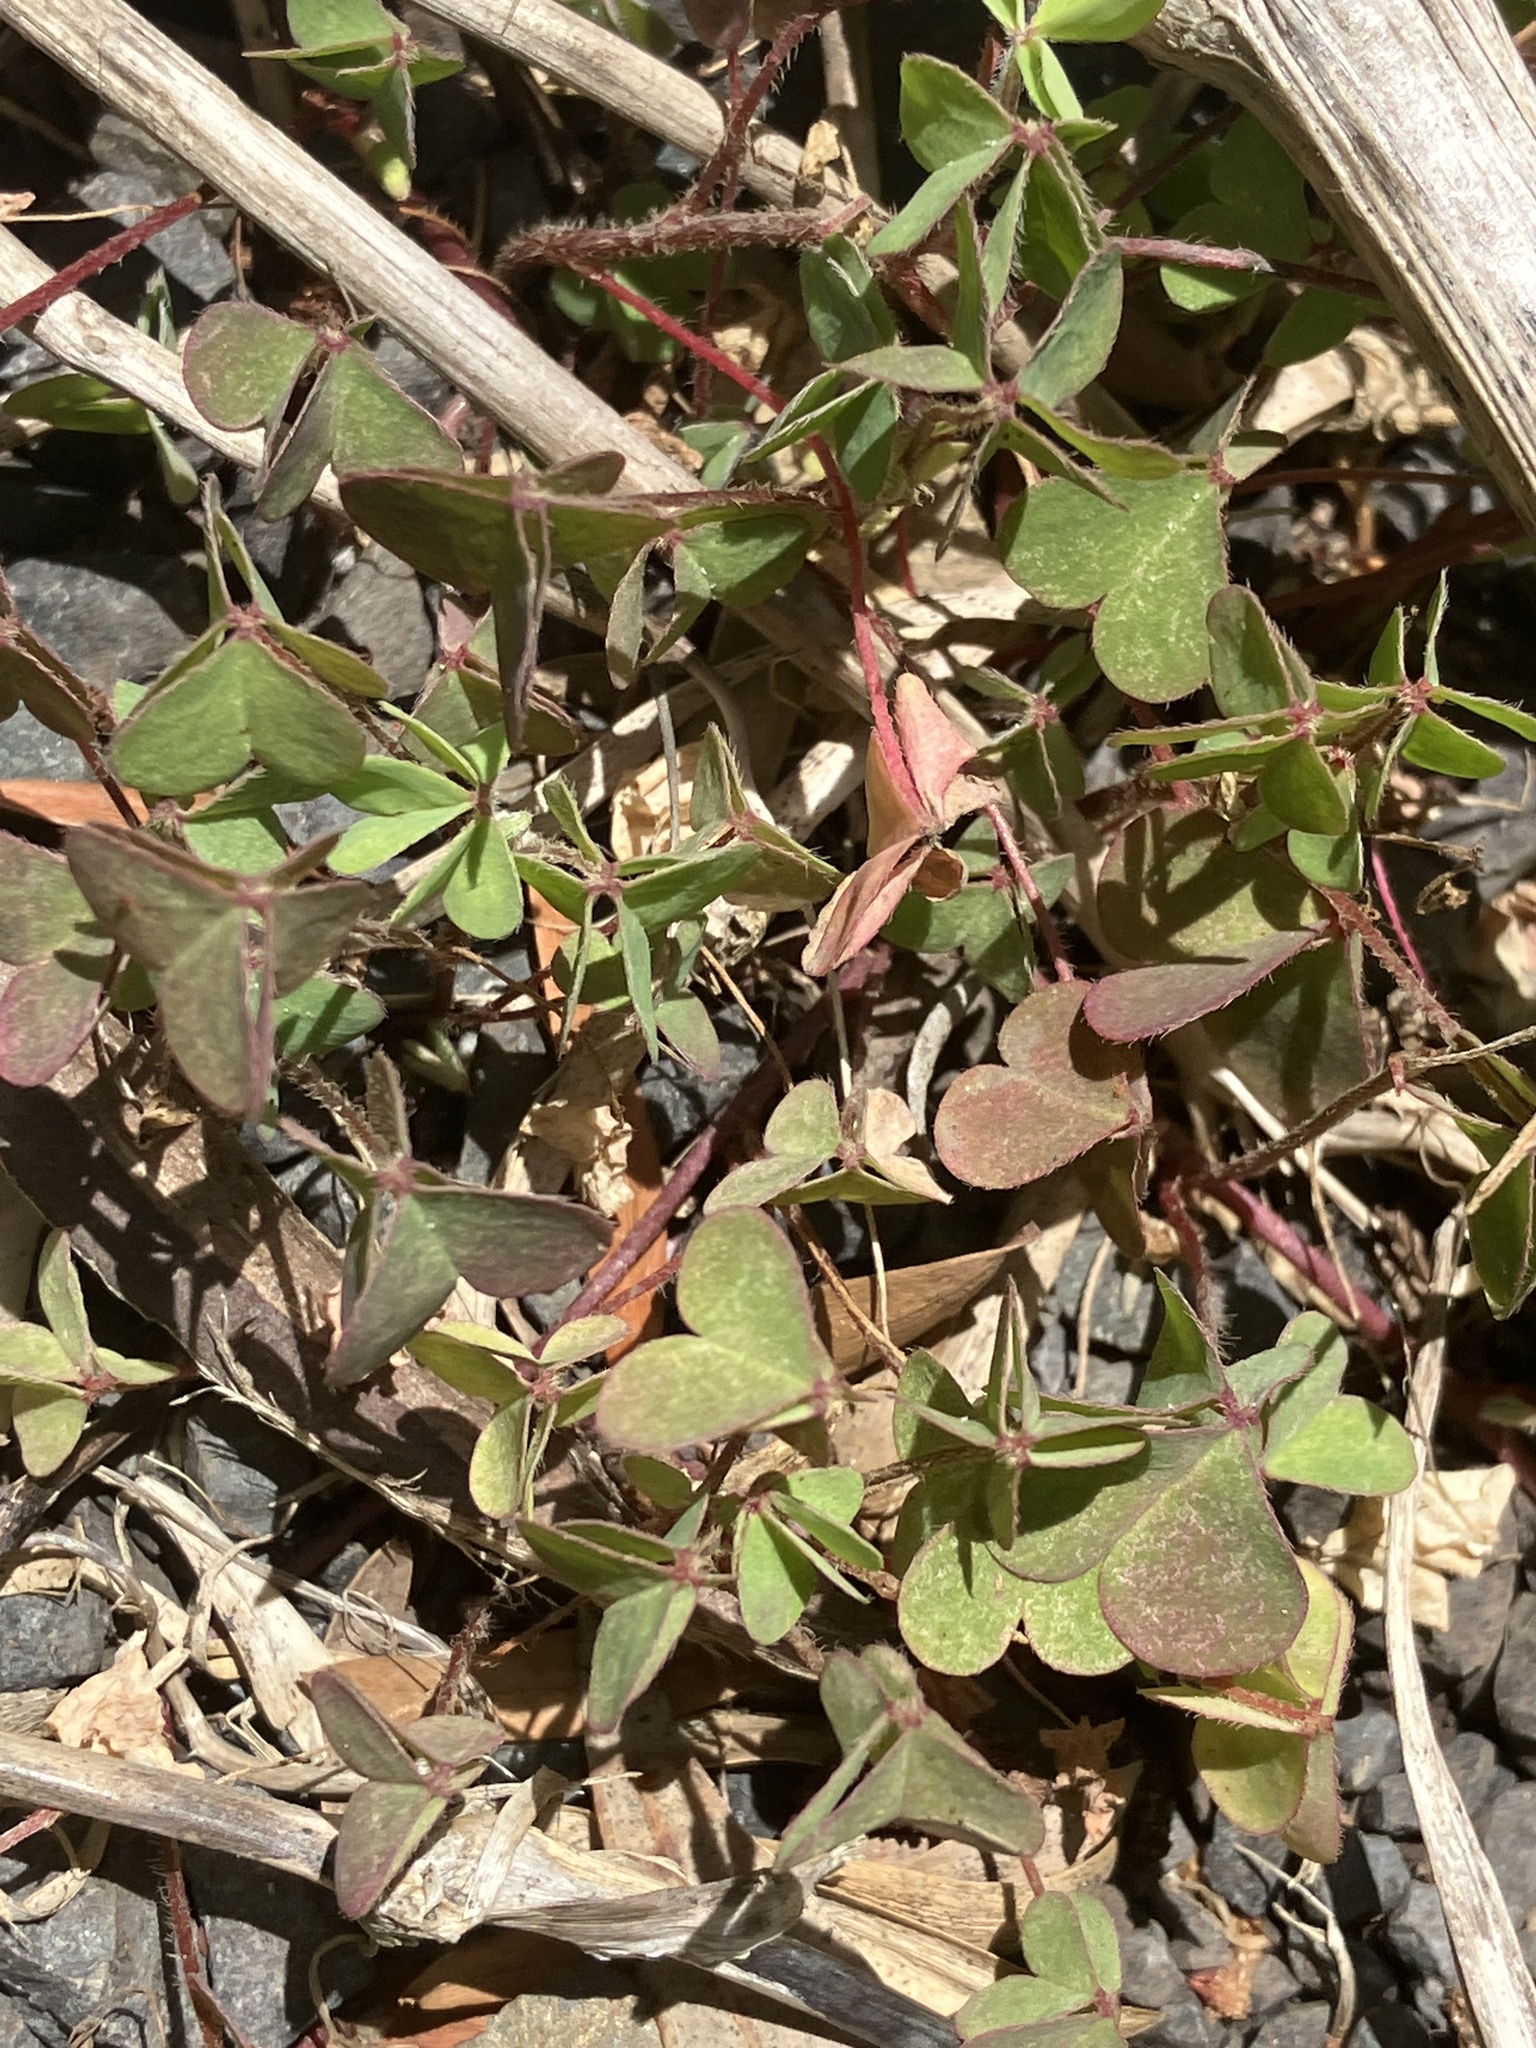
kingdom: Plantae
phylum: Tracheophyta
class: Magnoliopsida
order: Oxalidales
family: Oxalidaceae
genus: Oxalis
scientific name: Oxalis corniculata
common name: Procumbent yellow-sorrel
